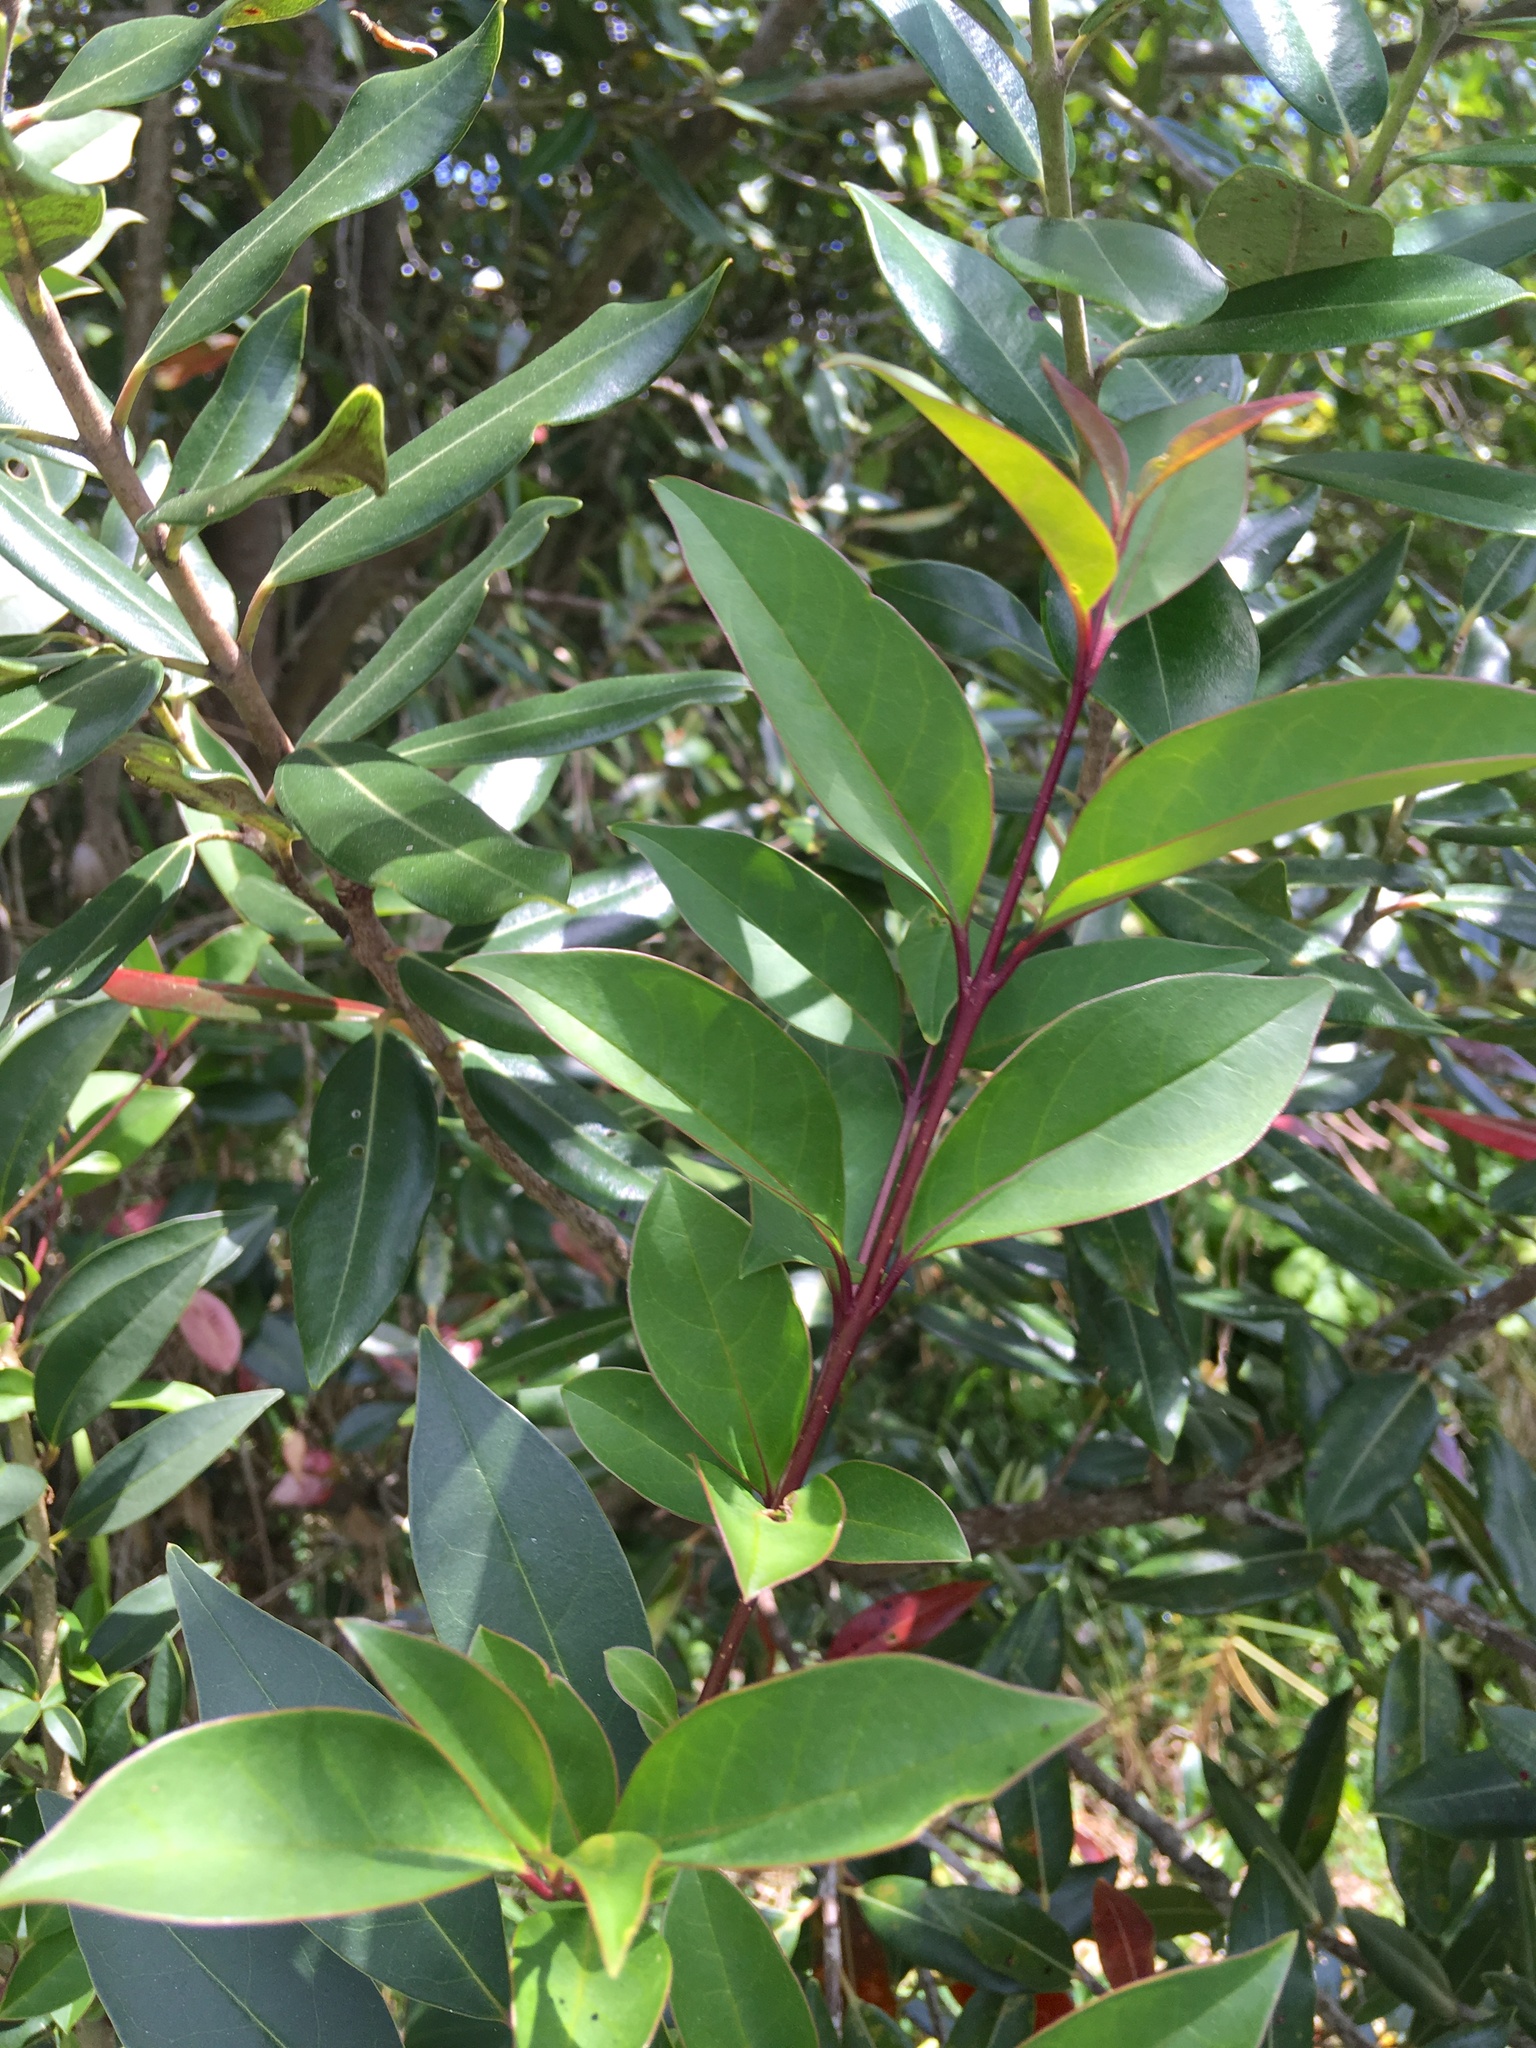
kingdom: Plantae
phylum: Tracheophyta
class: Magnoliopsida
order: Lamiales
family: Oleaceae
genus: Ligustrum
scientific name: Ligustrum lucidum
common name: Glossy privet
